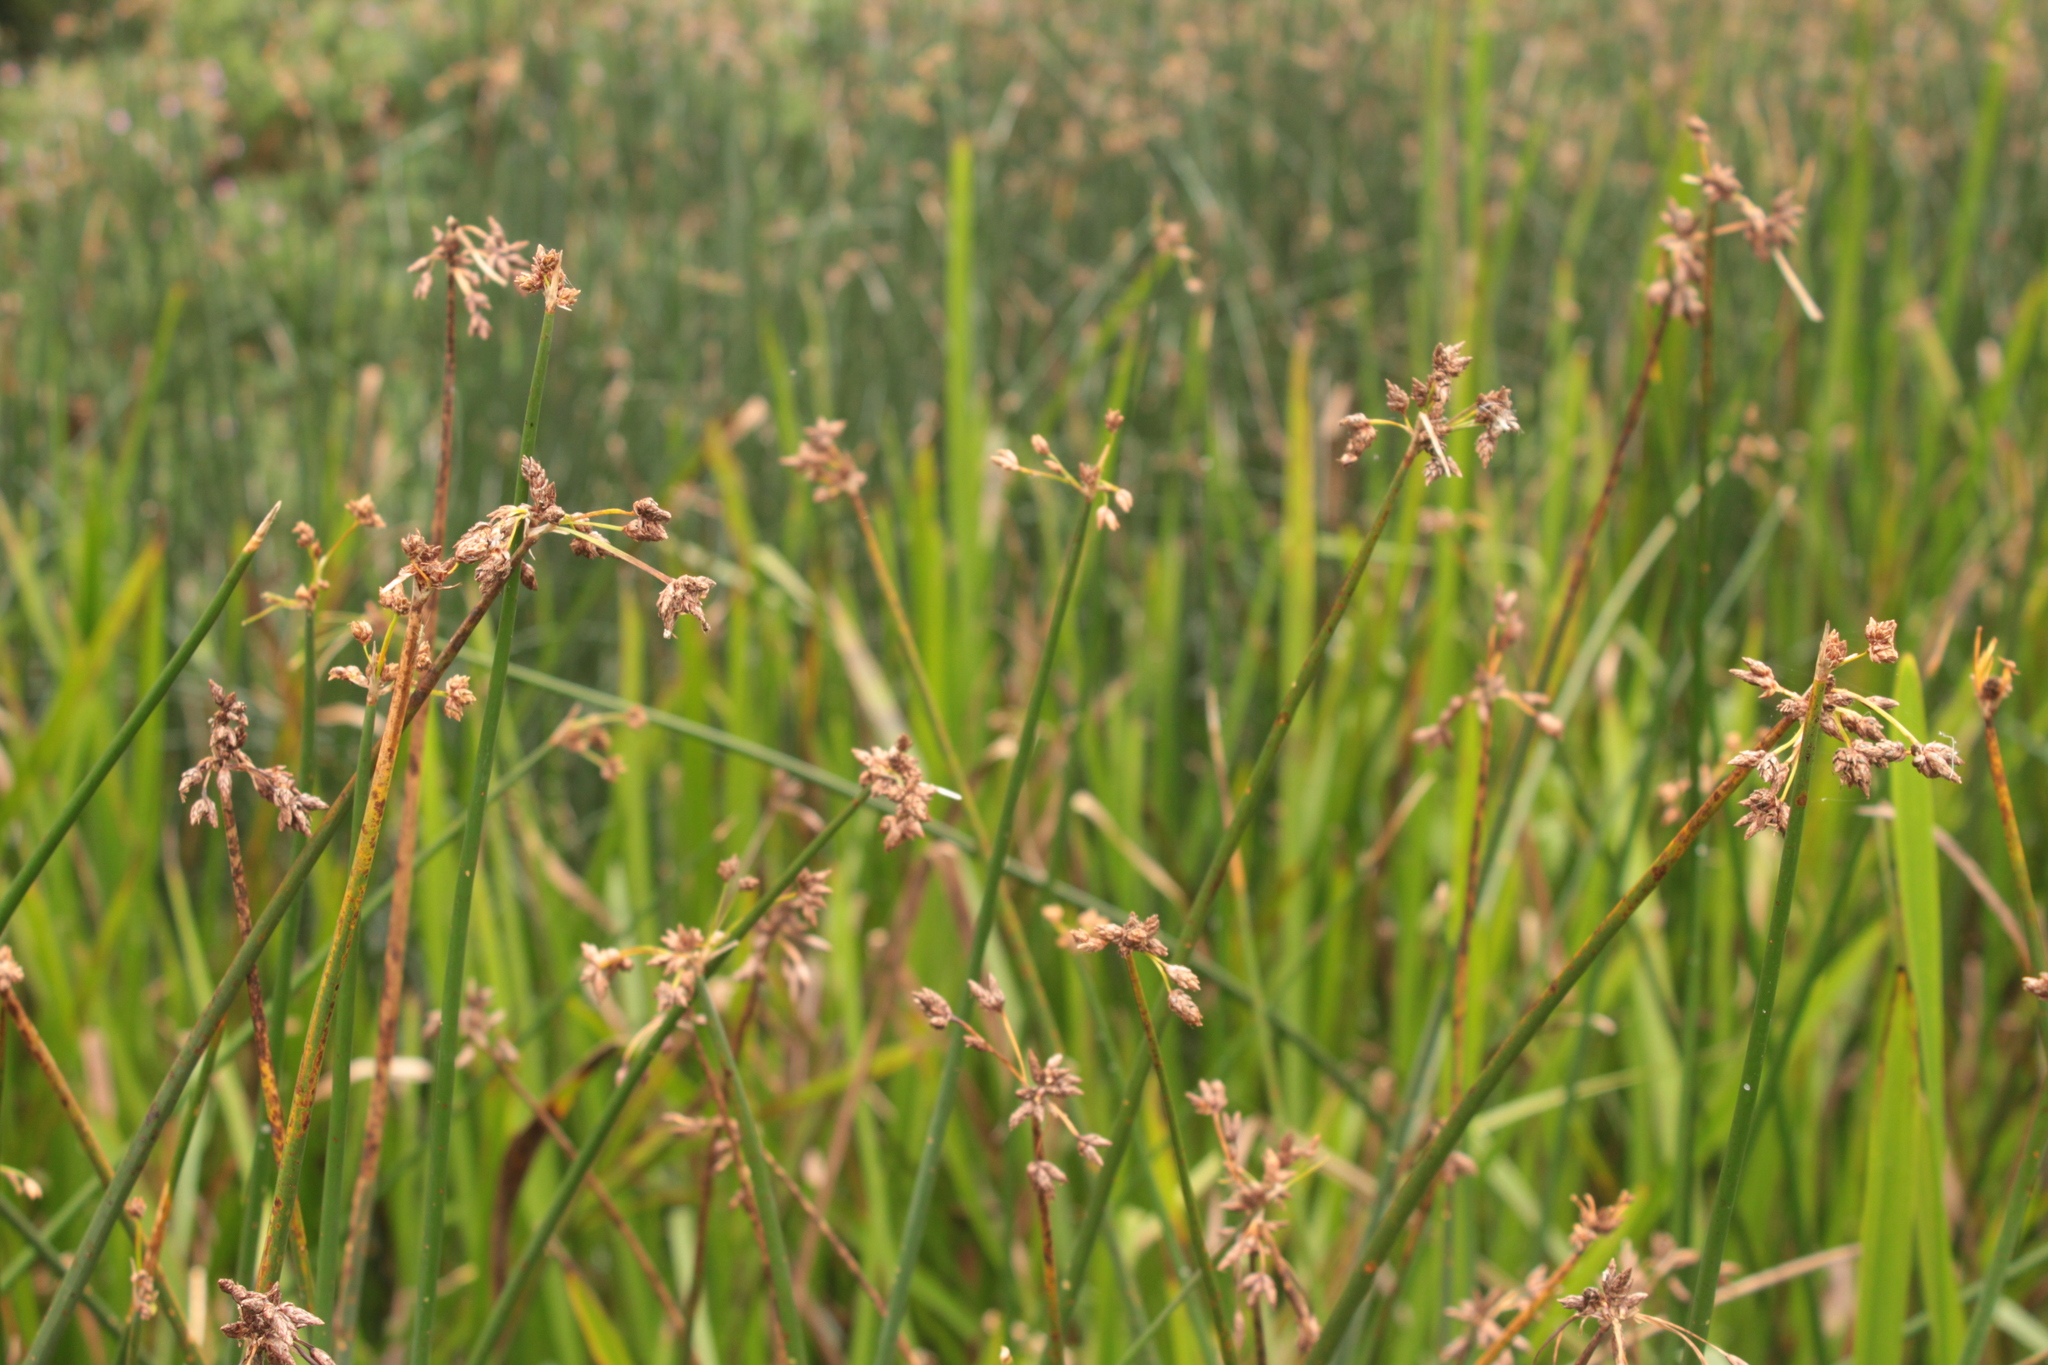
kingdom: Plantae
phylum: Tracheophyta
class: Liliopsida
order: Poales
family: Cyperaceae
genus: Schoenoplectus
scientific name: Schoenoplectus lacustris
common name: Common club-rush
